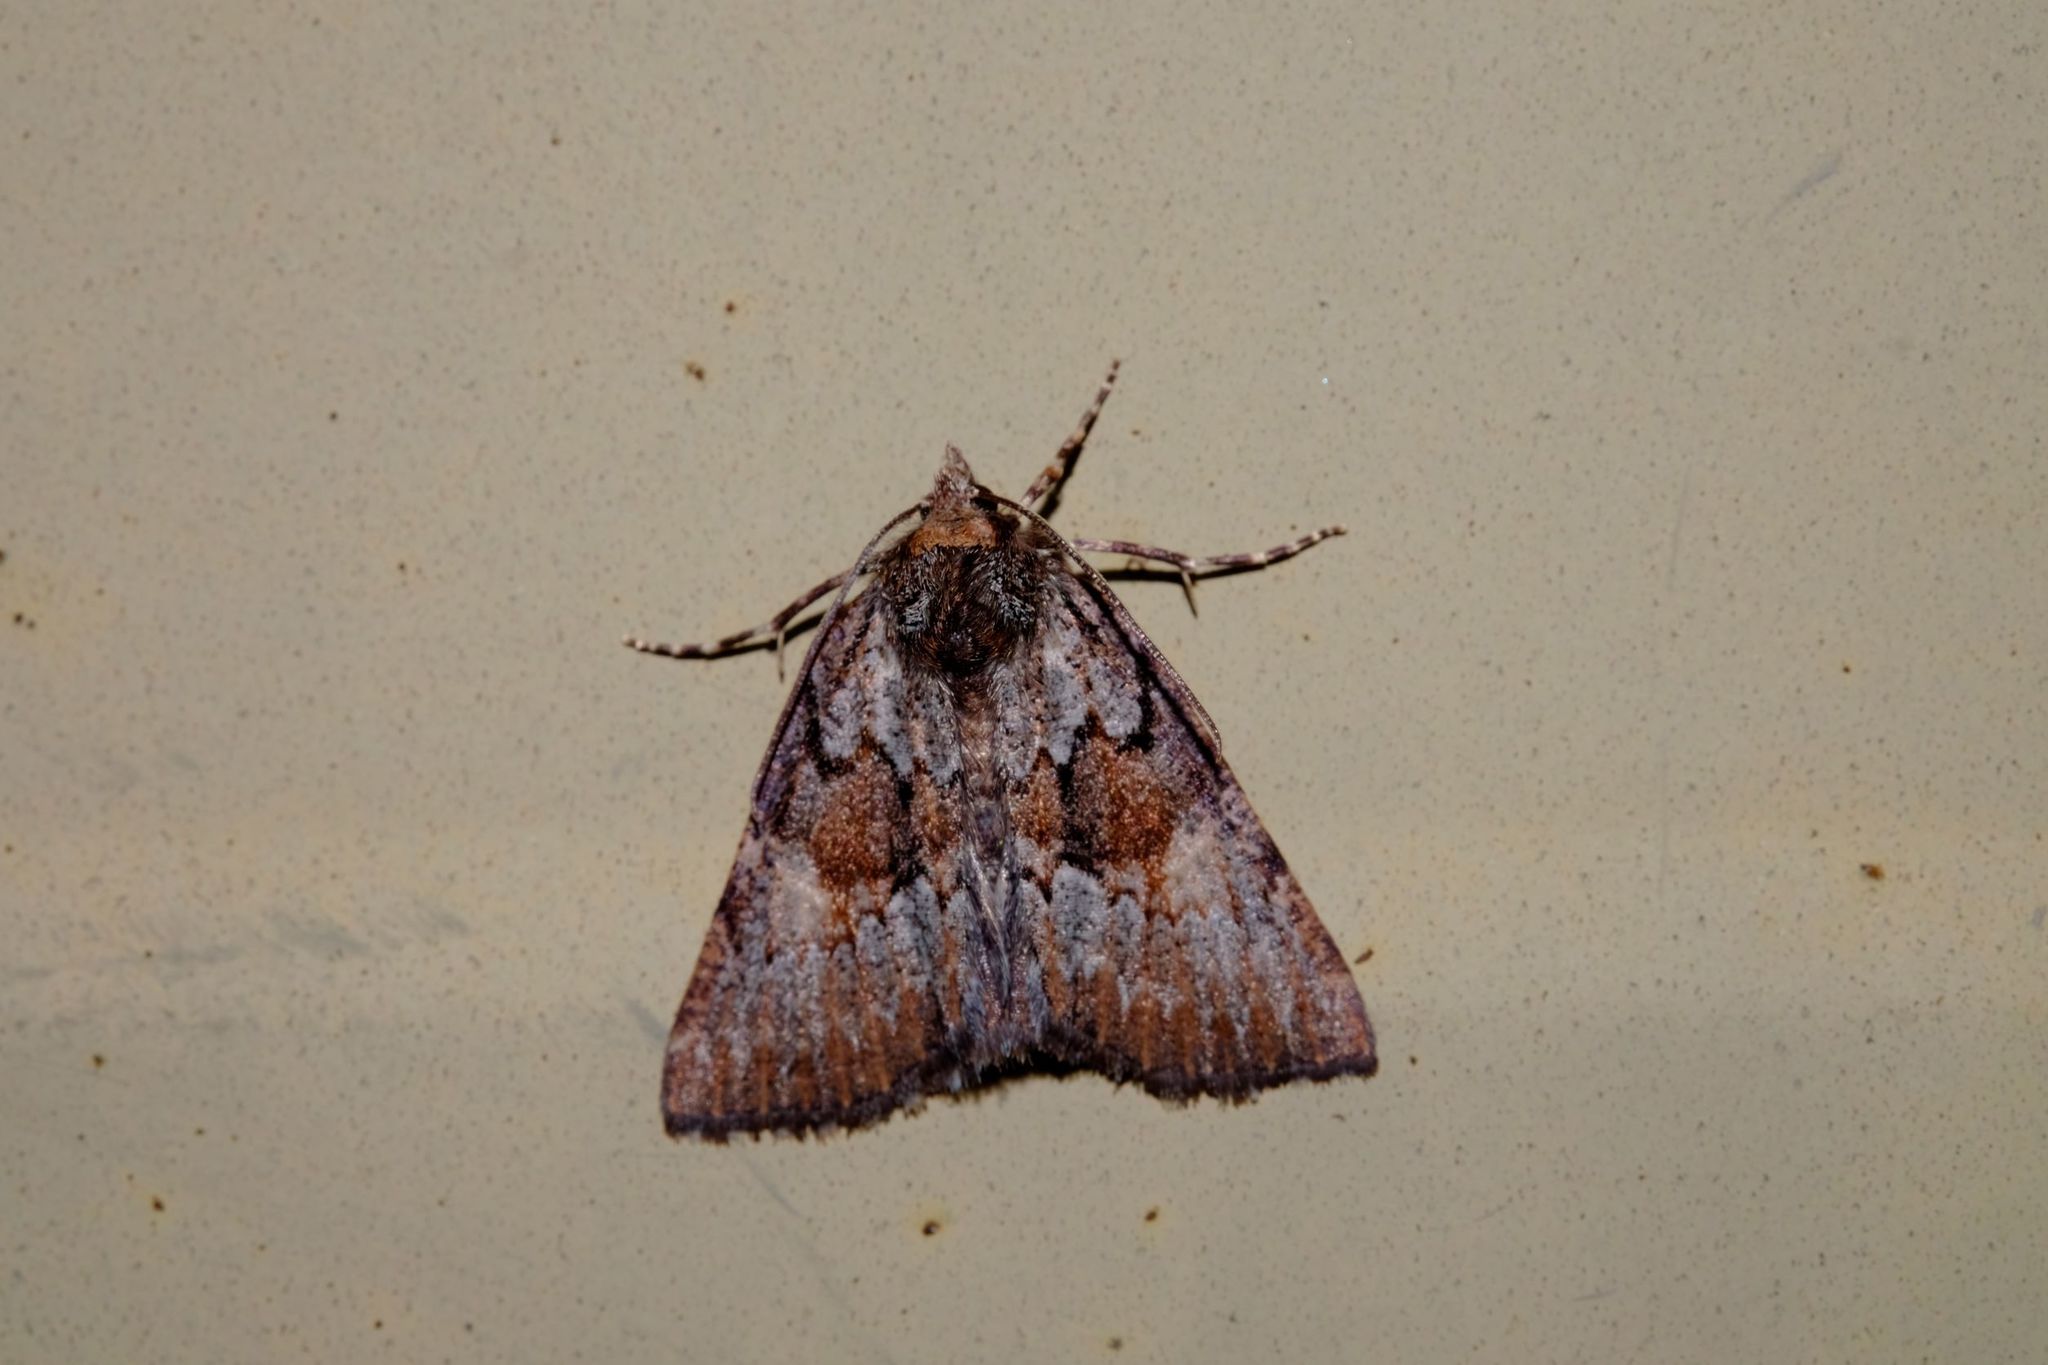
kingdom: Animalia
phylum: Arthropoda
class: Insecta
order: Lepidoptera
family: Geometridae
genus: Smyriodes
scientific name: Smyriodes
